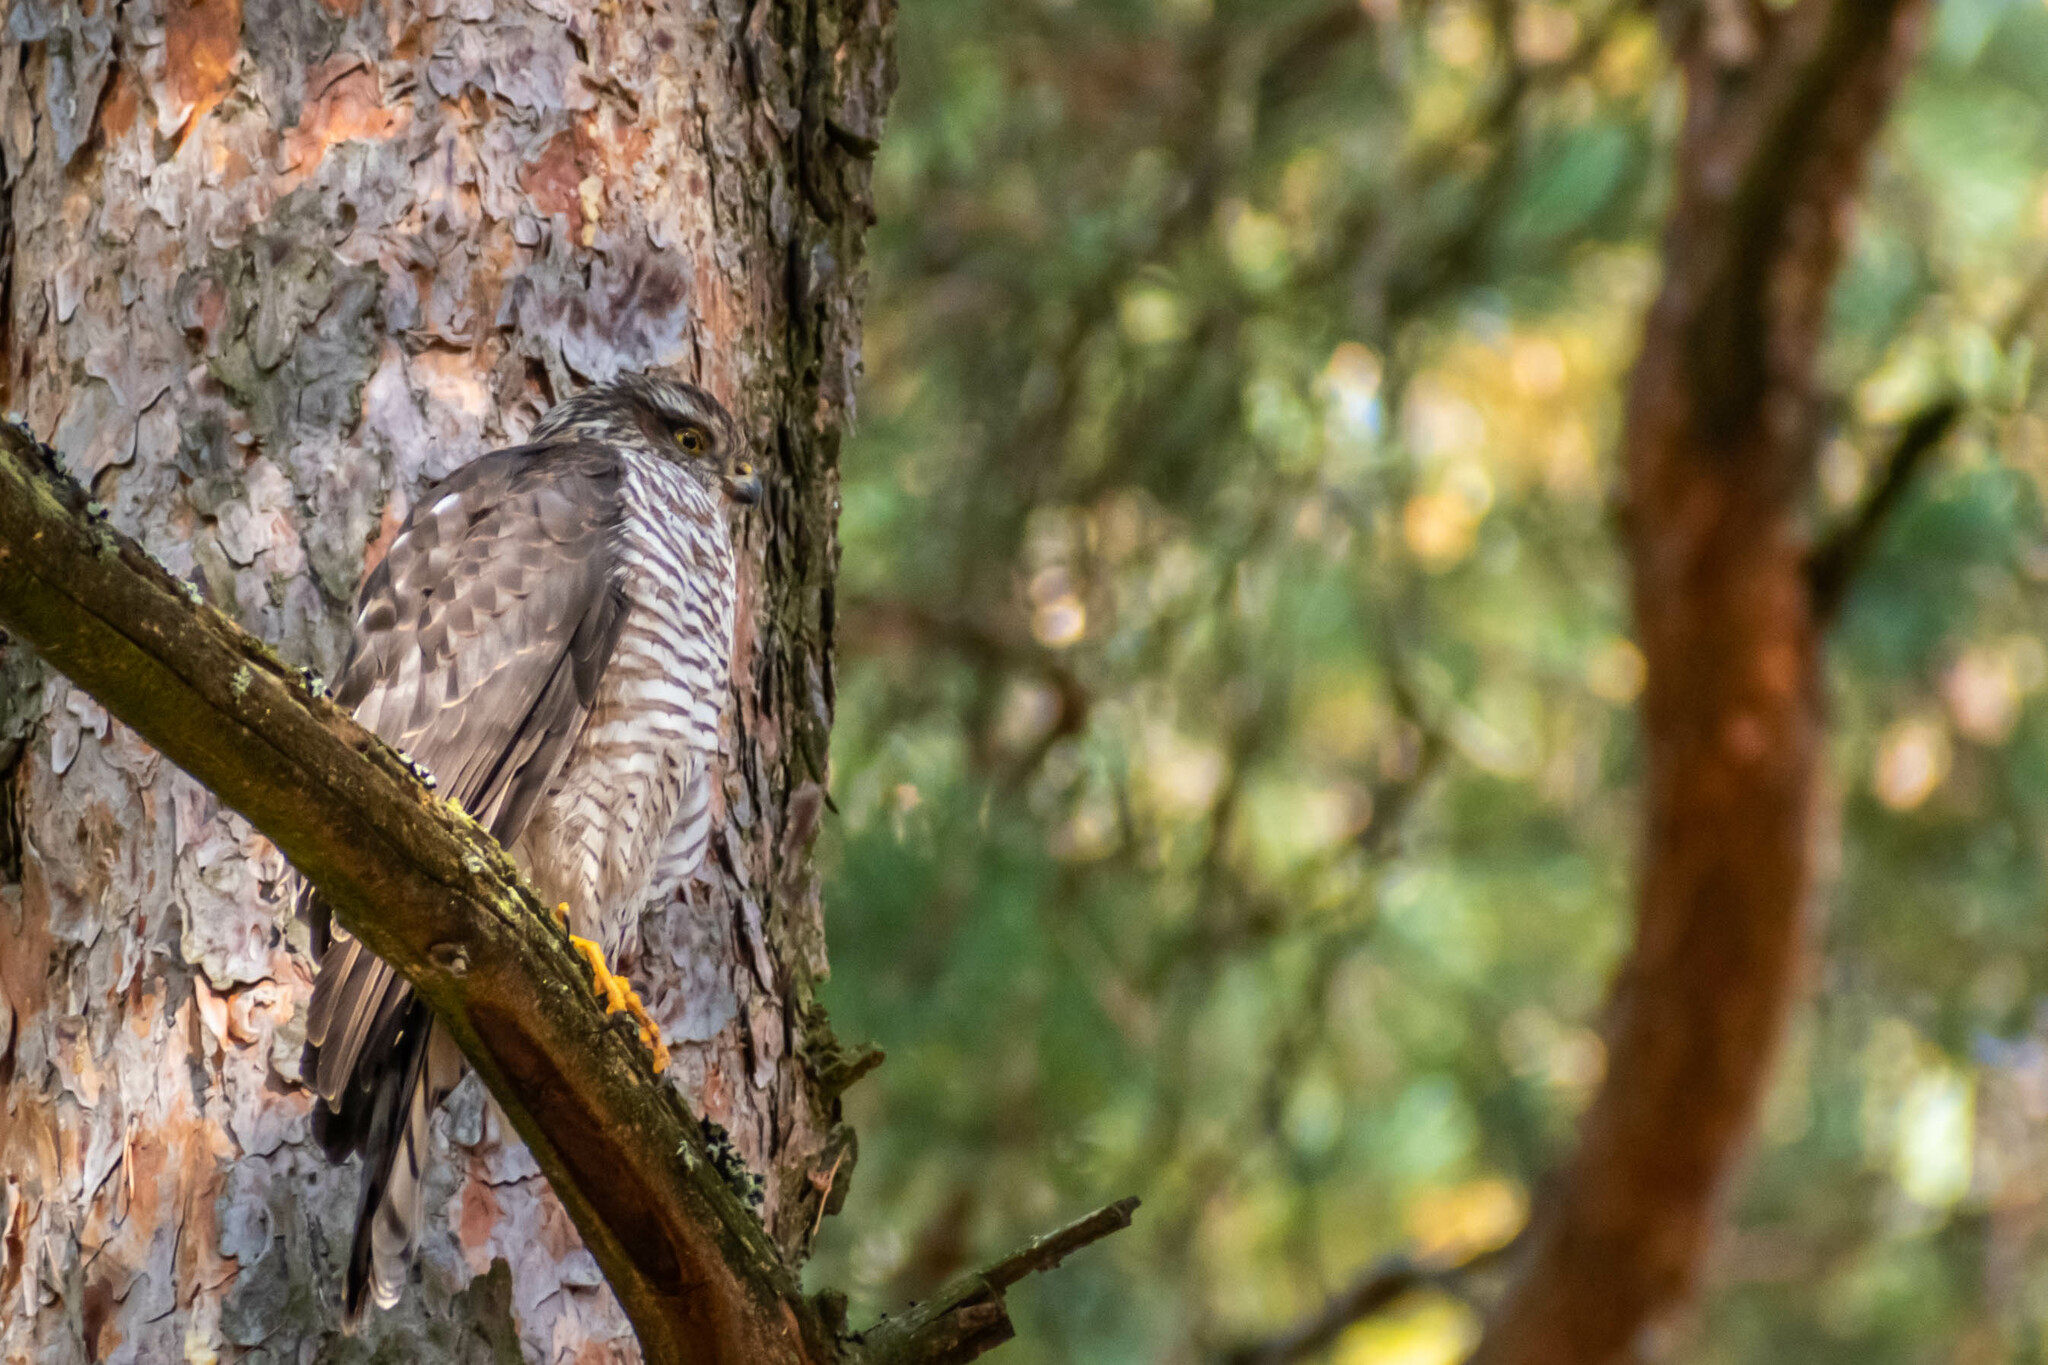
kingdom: Animalia
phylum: Chordata
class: Aves
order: Accipitriformes
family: Accipitridae
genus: Accipiter
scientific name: Accipiter nisus
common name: Eurasian sparrowhawk
